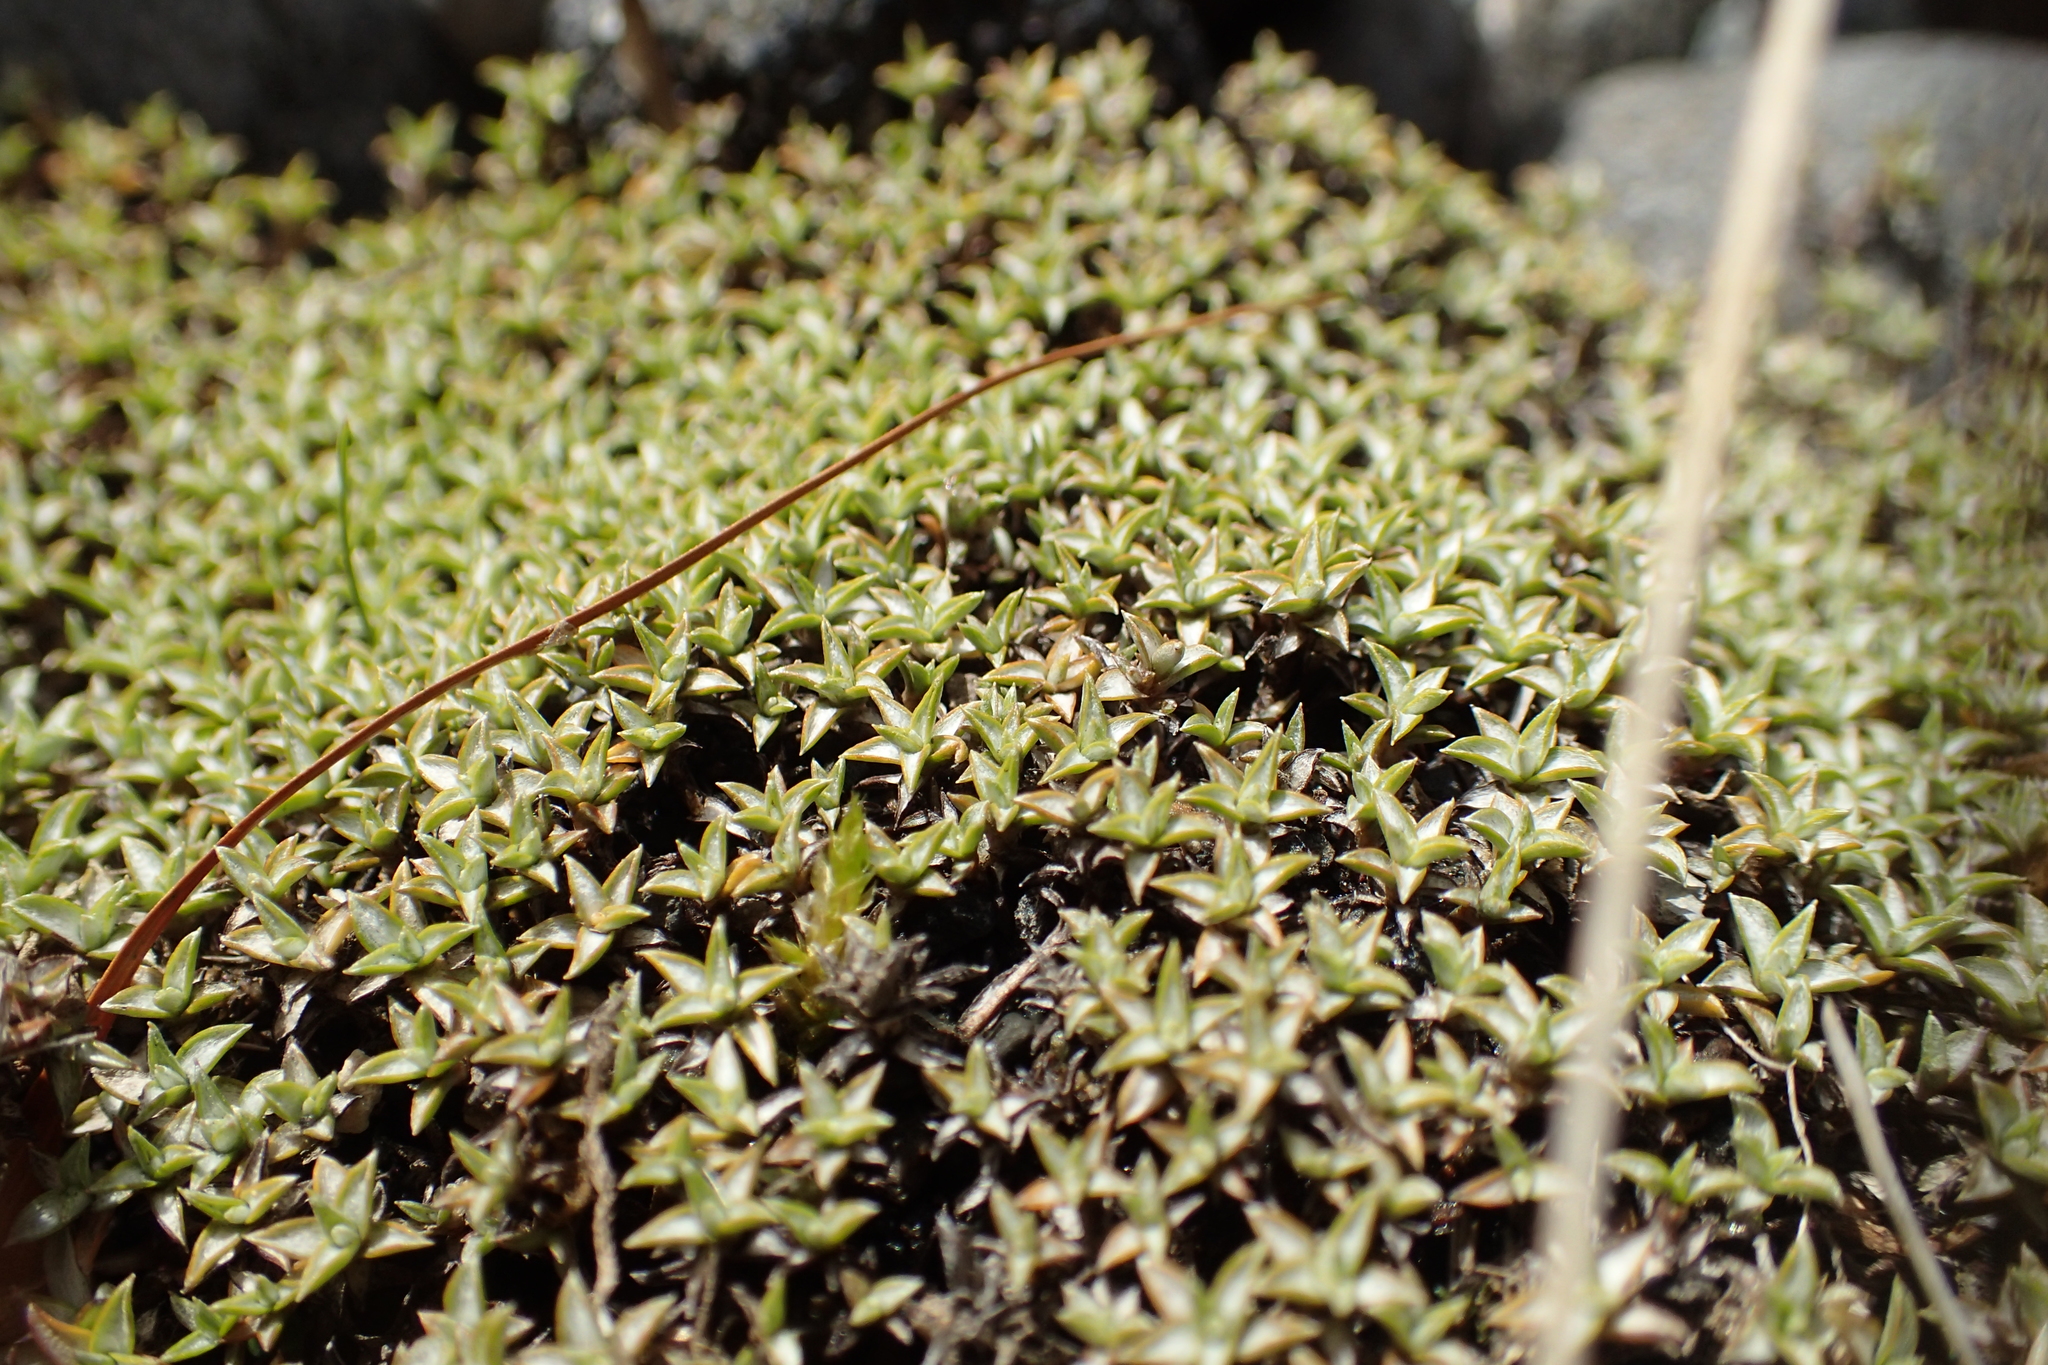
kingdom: Plantae
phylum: Tracheophyta
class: Magnoliopsida
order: Asterales
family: Asteraceae
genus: Raoulia
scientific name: Raoulia tenuicaulis
